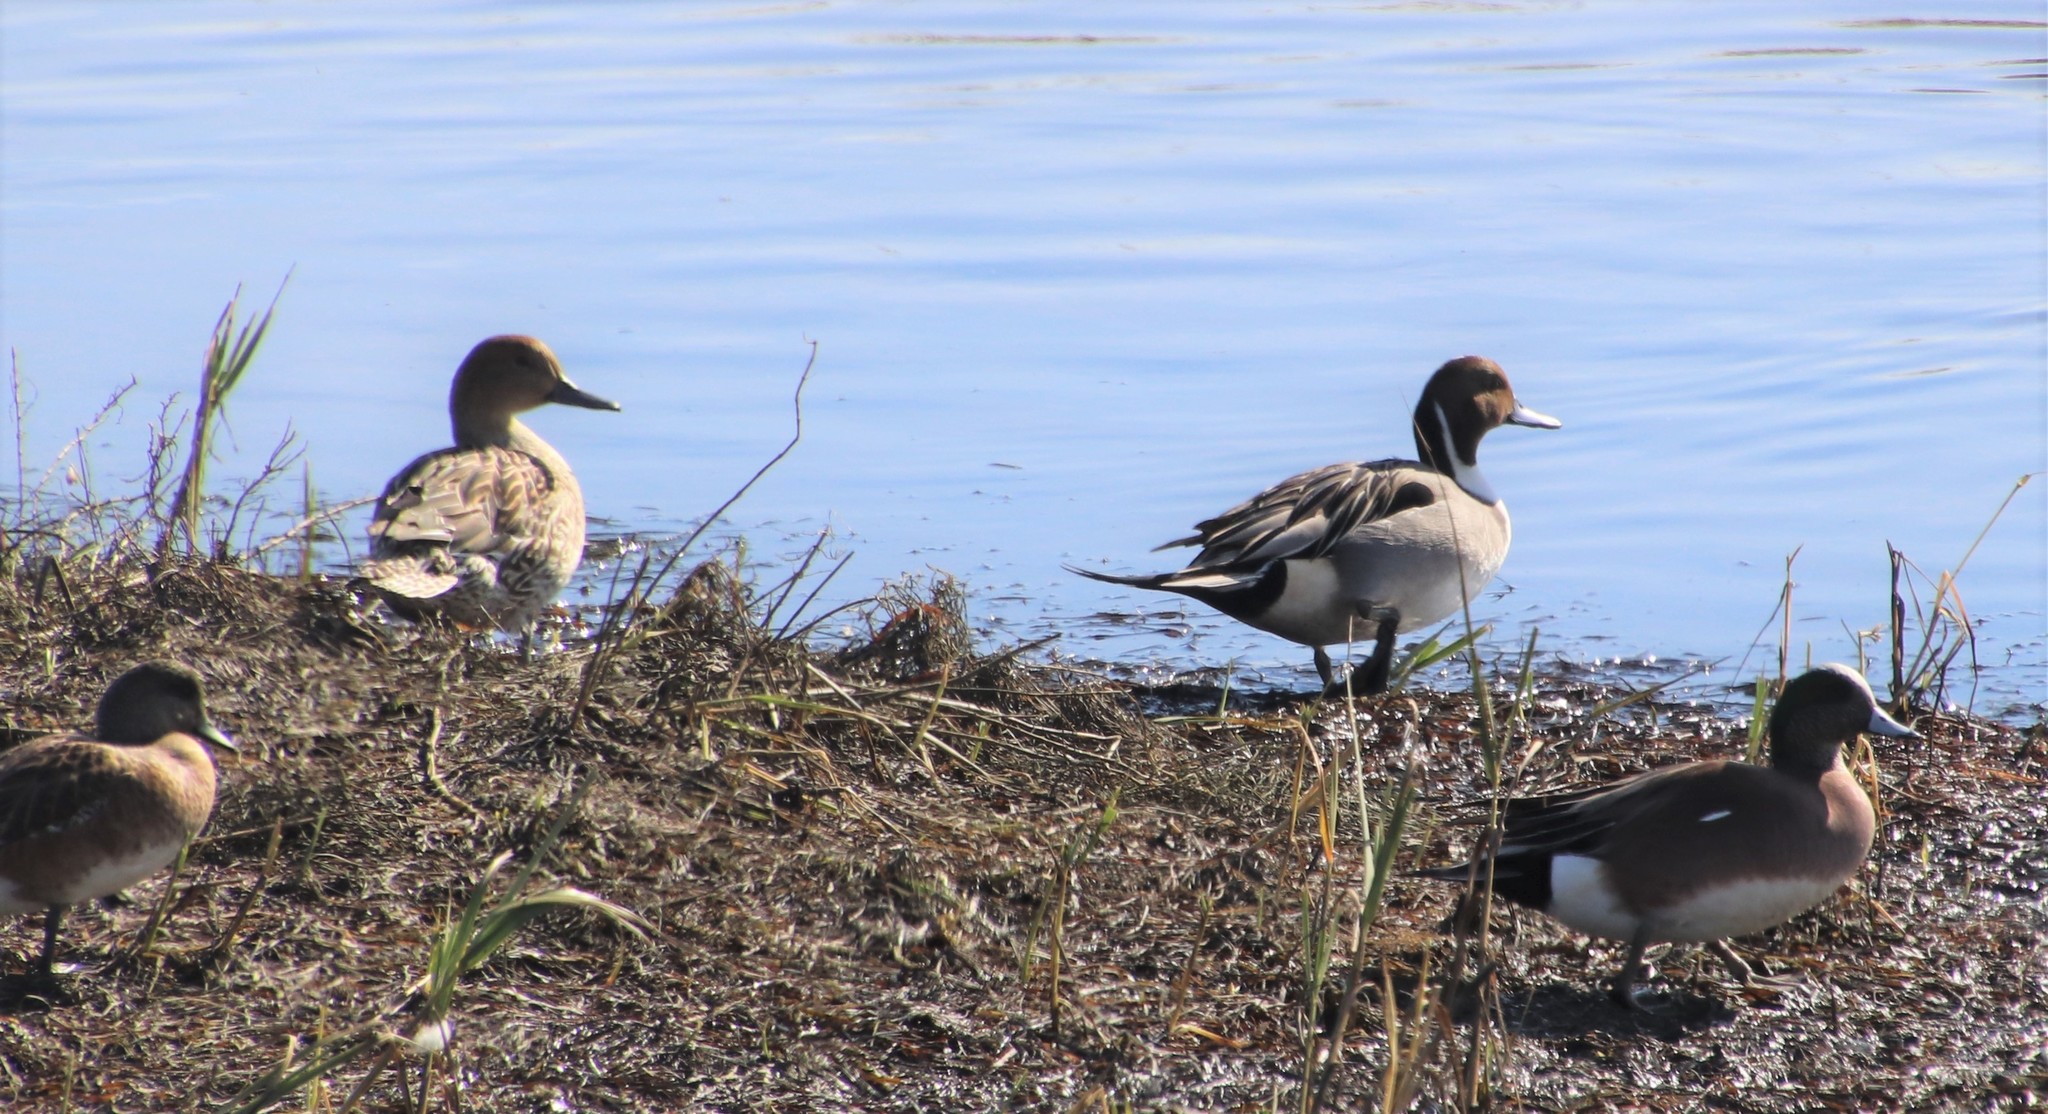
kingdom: Animalia
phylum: Chordata
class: Aves
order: Anseriformes
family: Anatidae
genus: Anas
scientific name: Anas acuta
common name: Northern pintail
